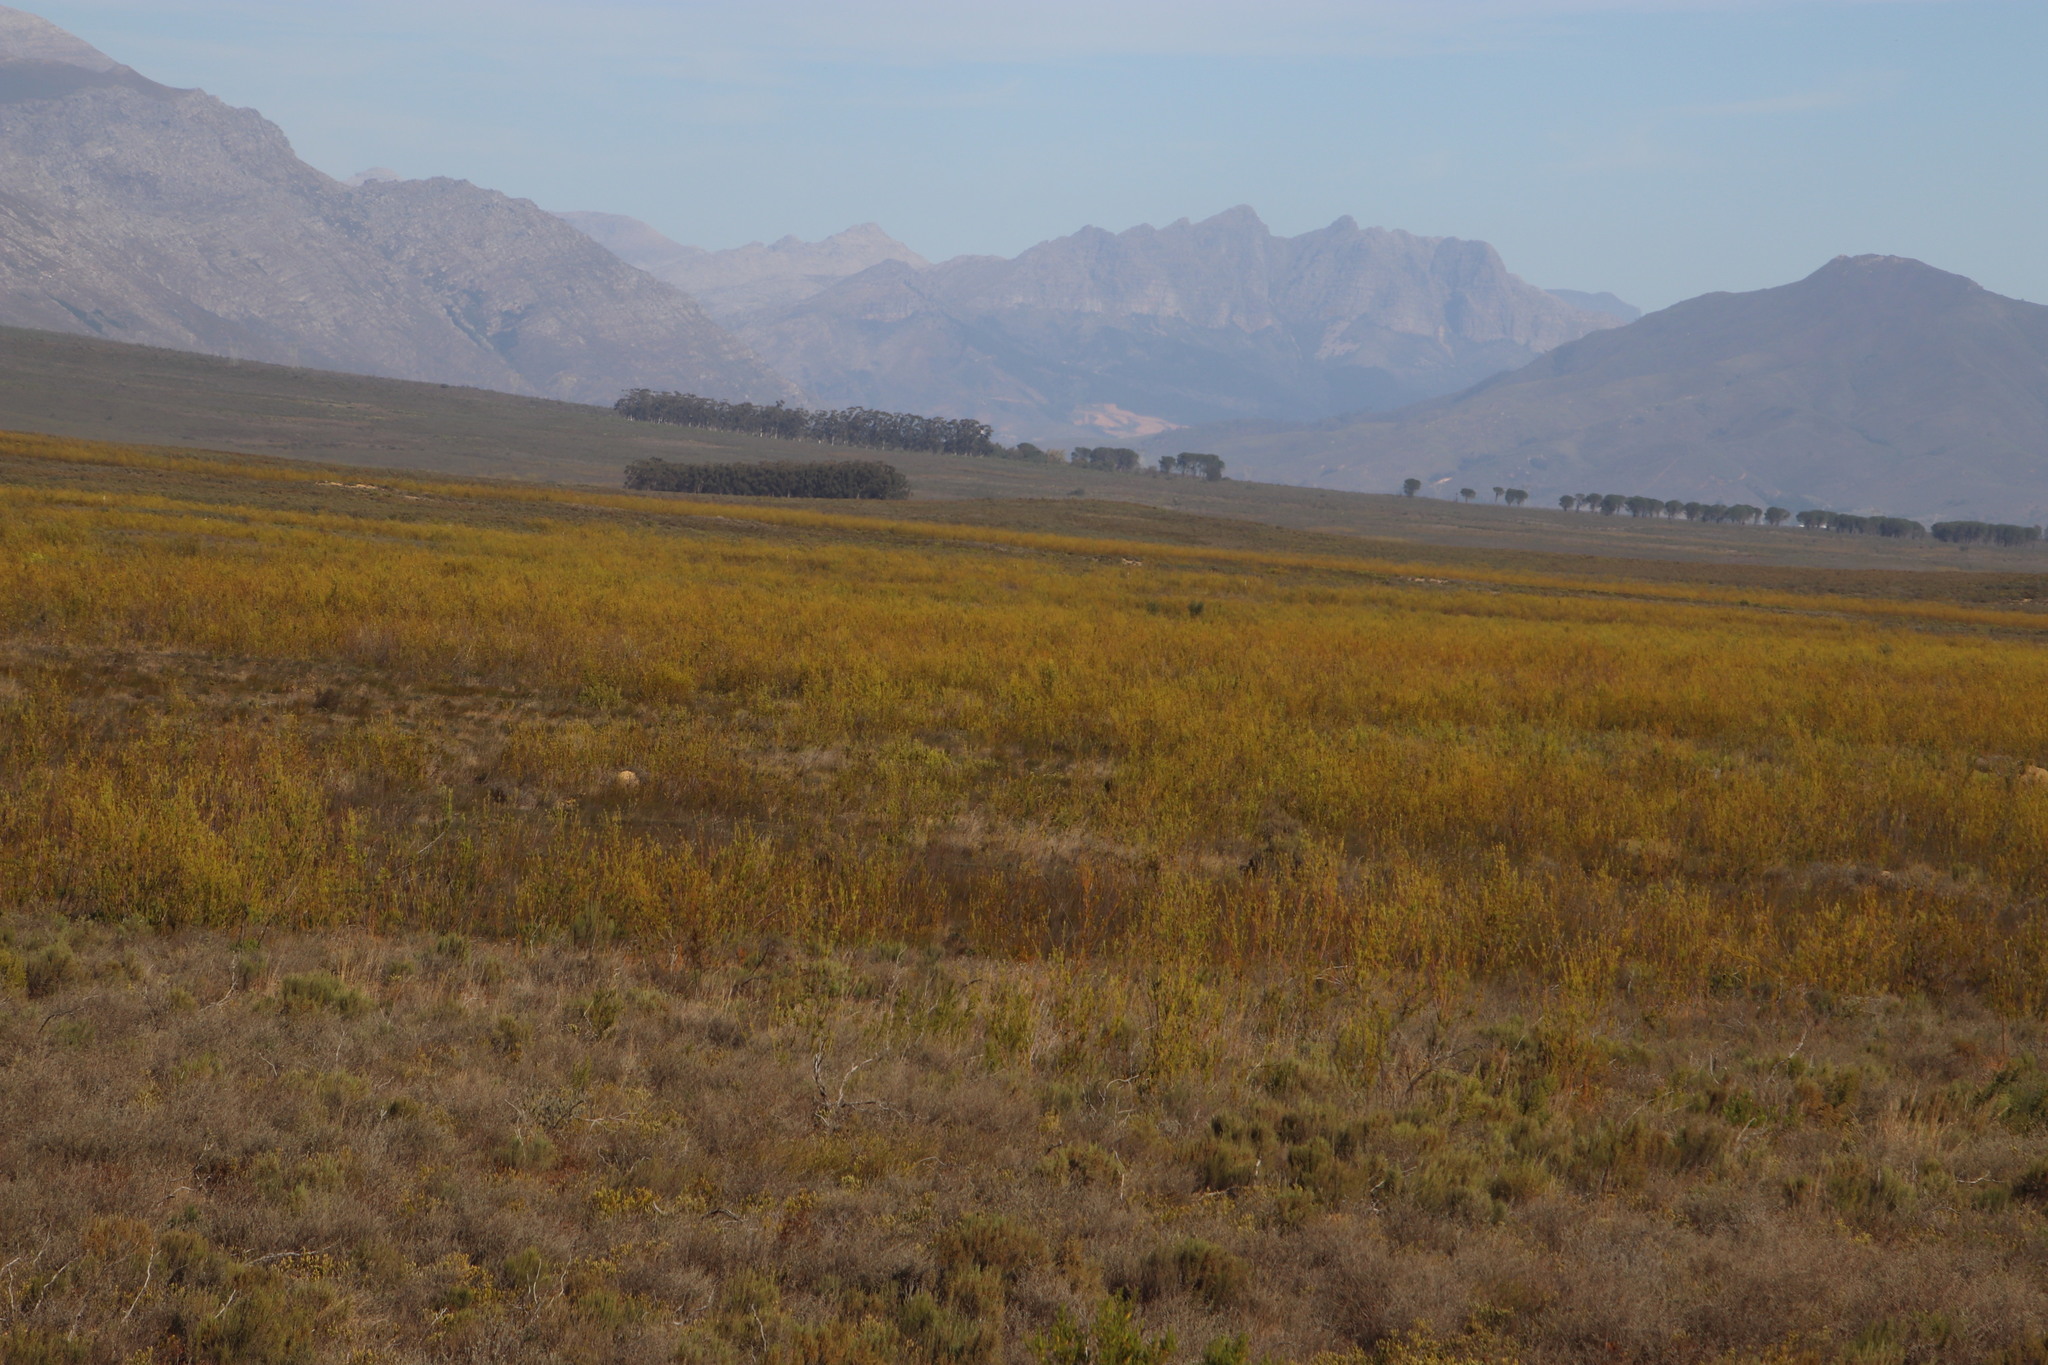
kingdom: Plantae
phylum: Tracheophyta
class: Magnoliopsida
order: Proteales
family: Proteaceae
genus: Leucadendron
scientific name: Leucadendron corymbosum
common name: Swartveld conebush
